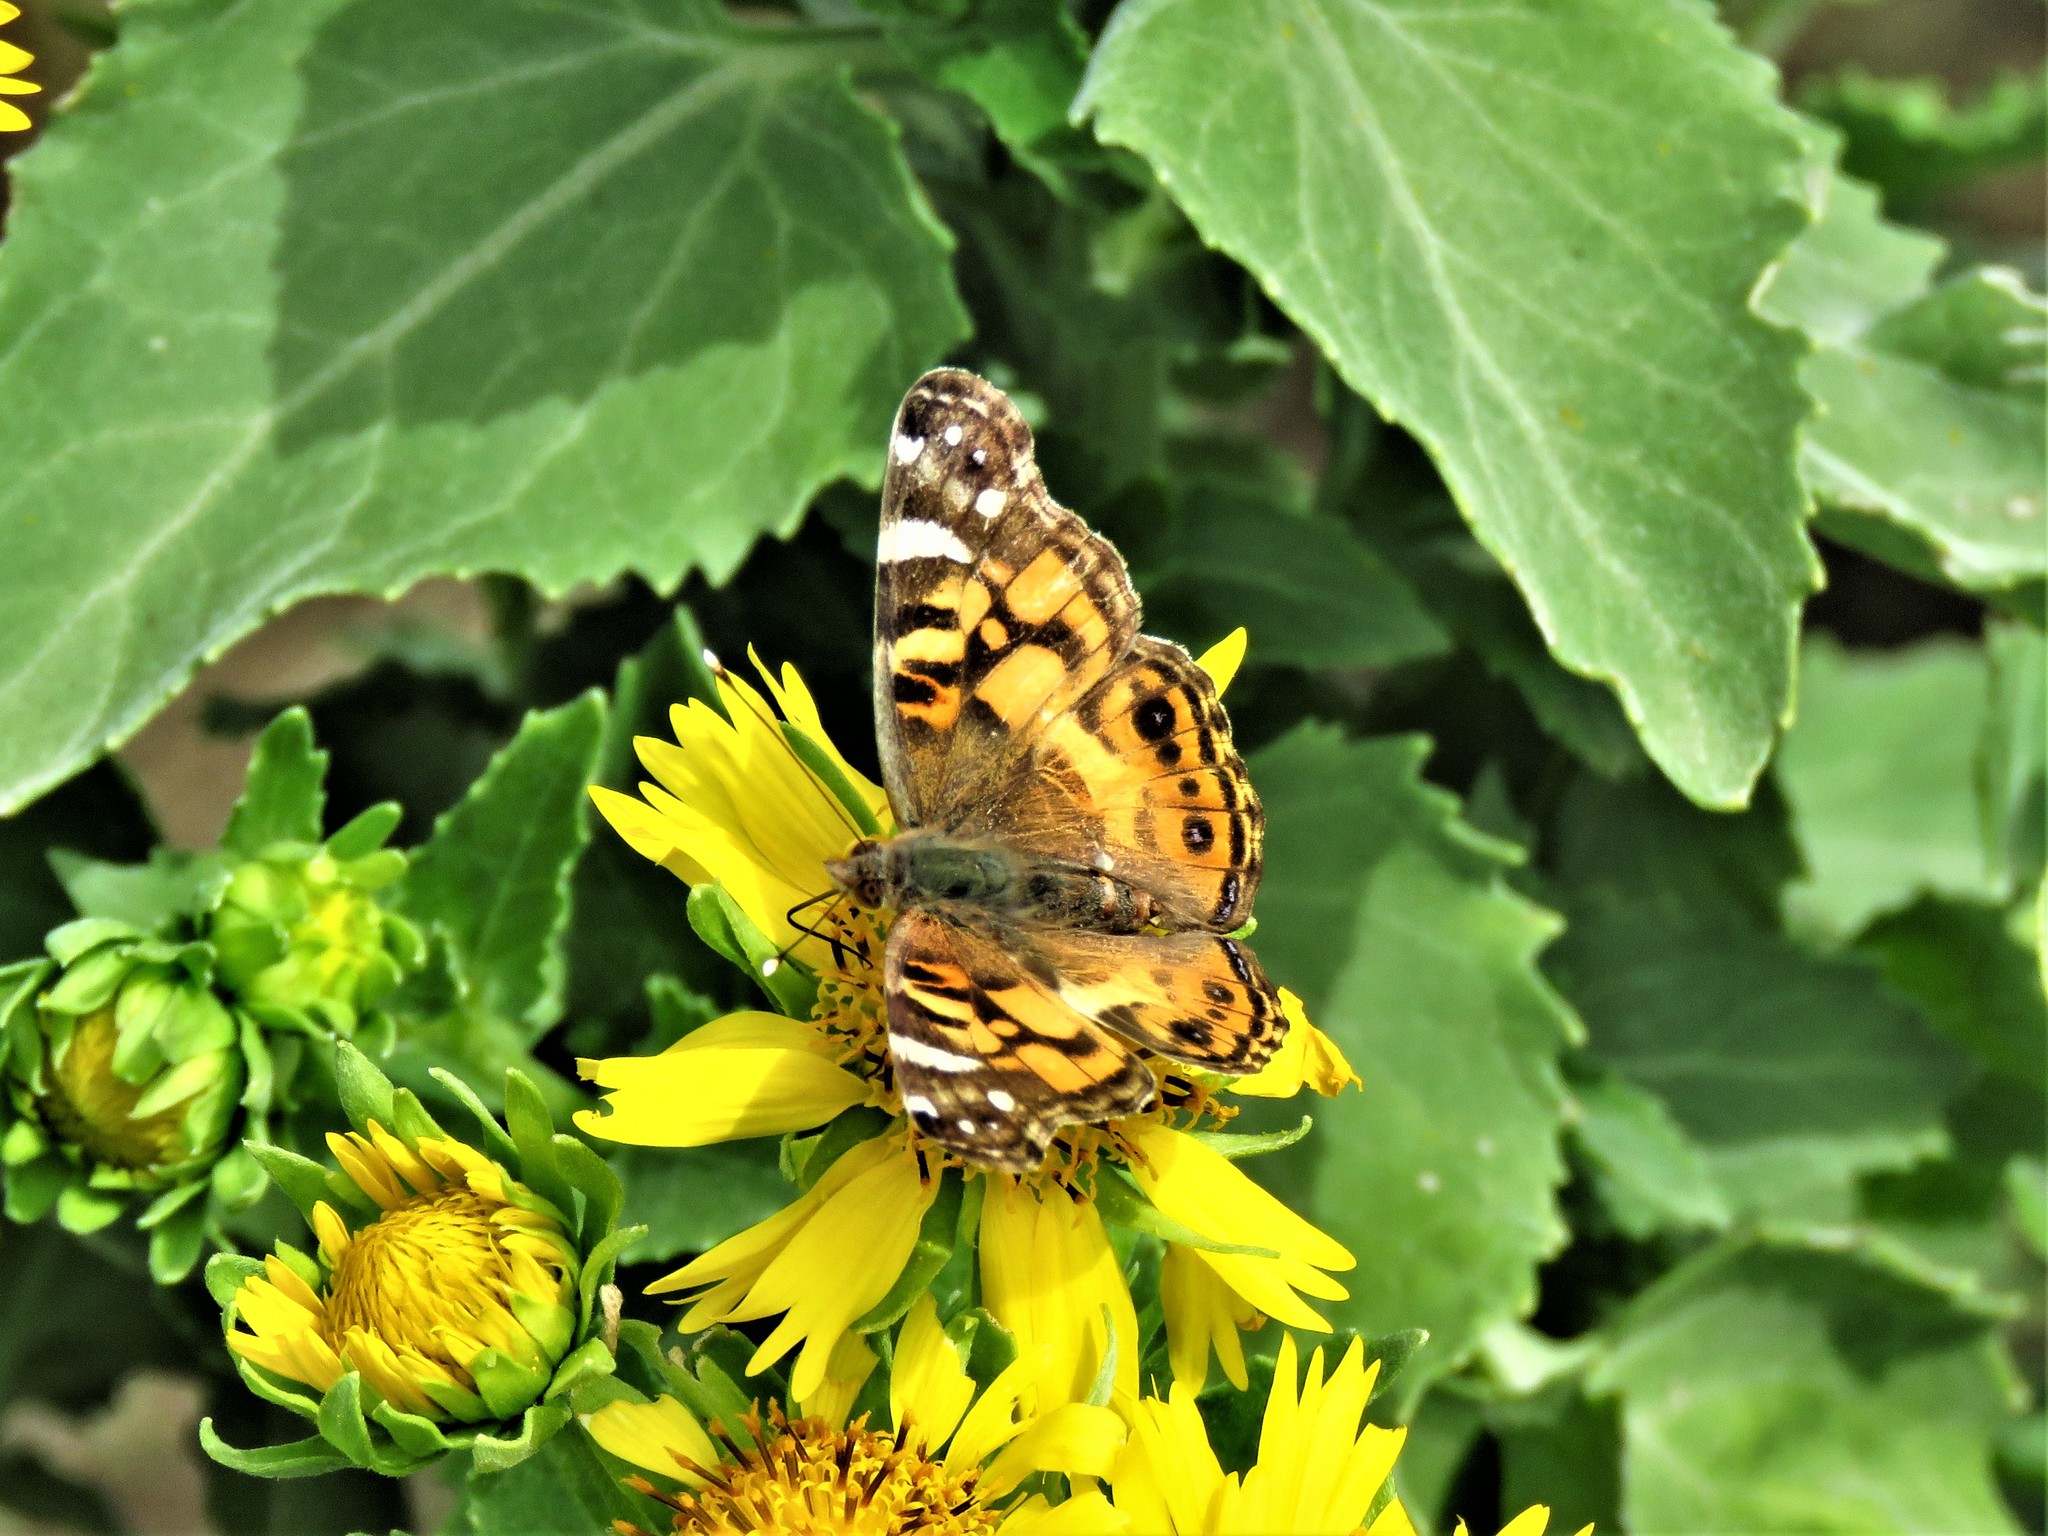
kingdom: Animalia
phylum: Arthropoda
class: Insecta
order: Lepidoptera
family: Nymphalidae
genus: Vanessa
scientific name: Vanessa virginiensis
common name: American lady
